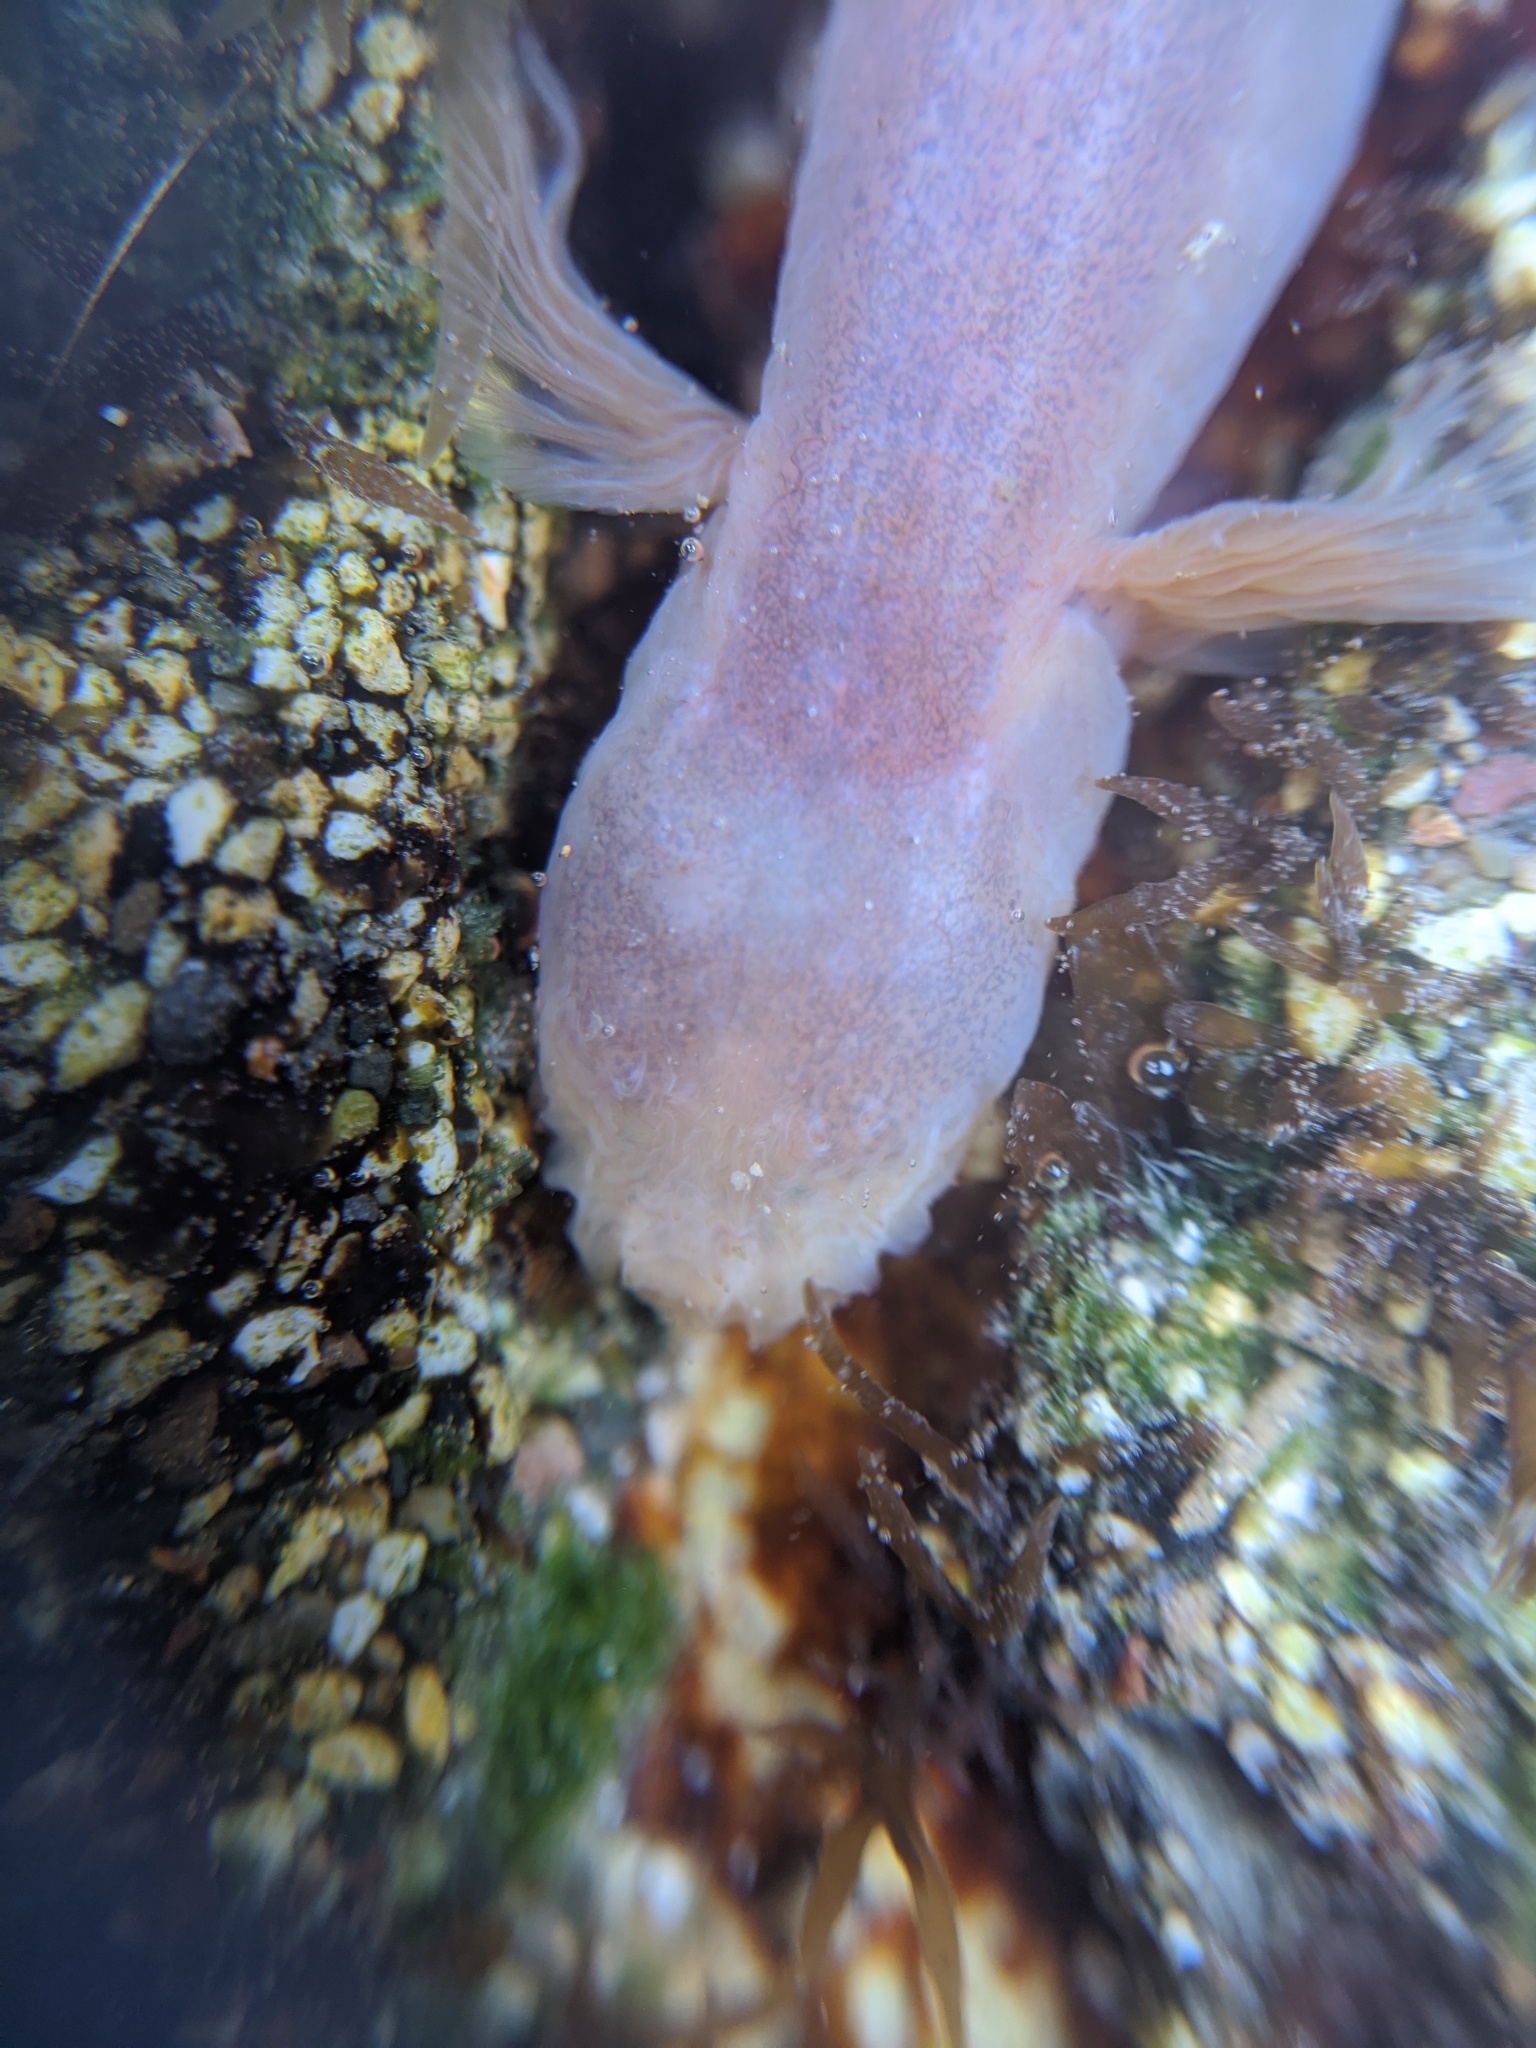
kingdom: Animalia
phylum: Chordata
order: Perciformes
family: Gobiidae
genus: Typhlogobius
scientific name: Typhlogobius californiensis
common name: Blind goby
